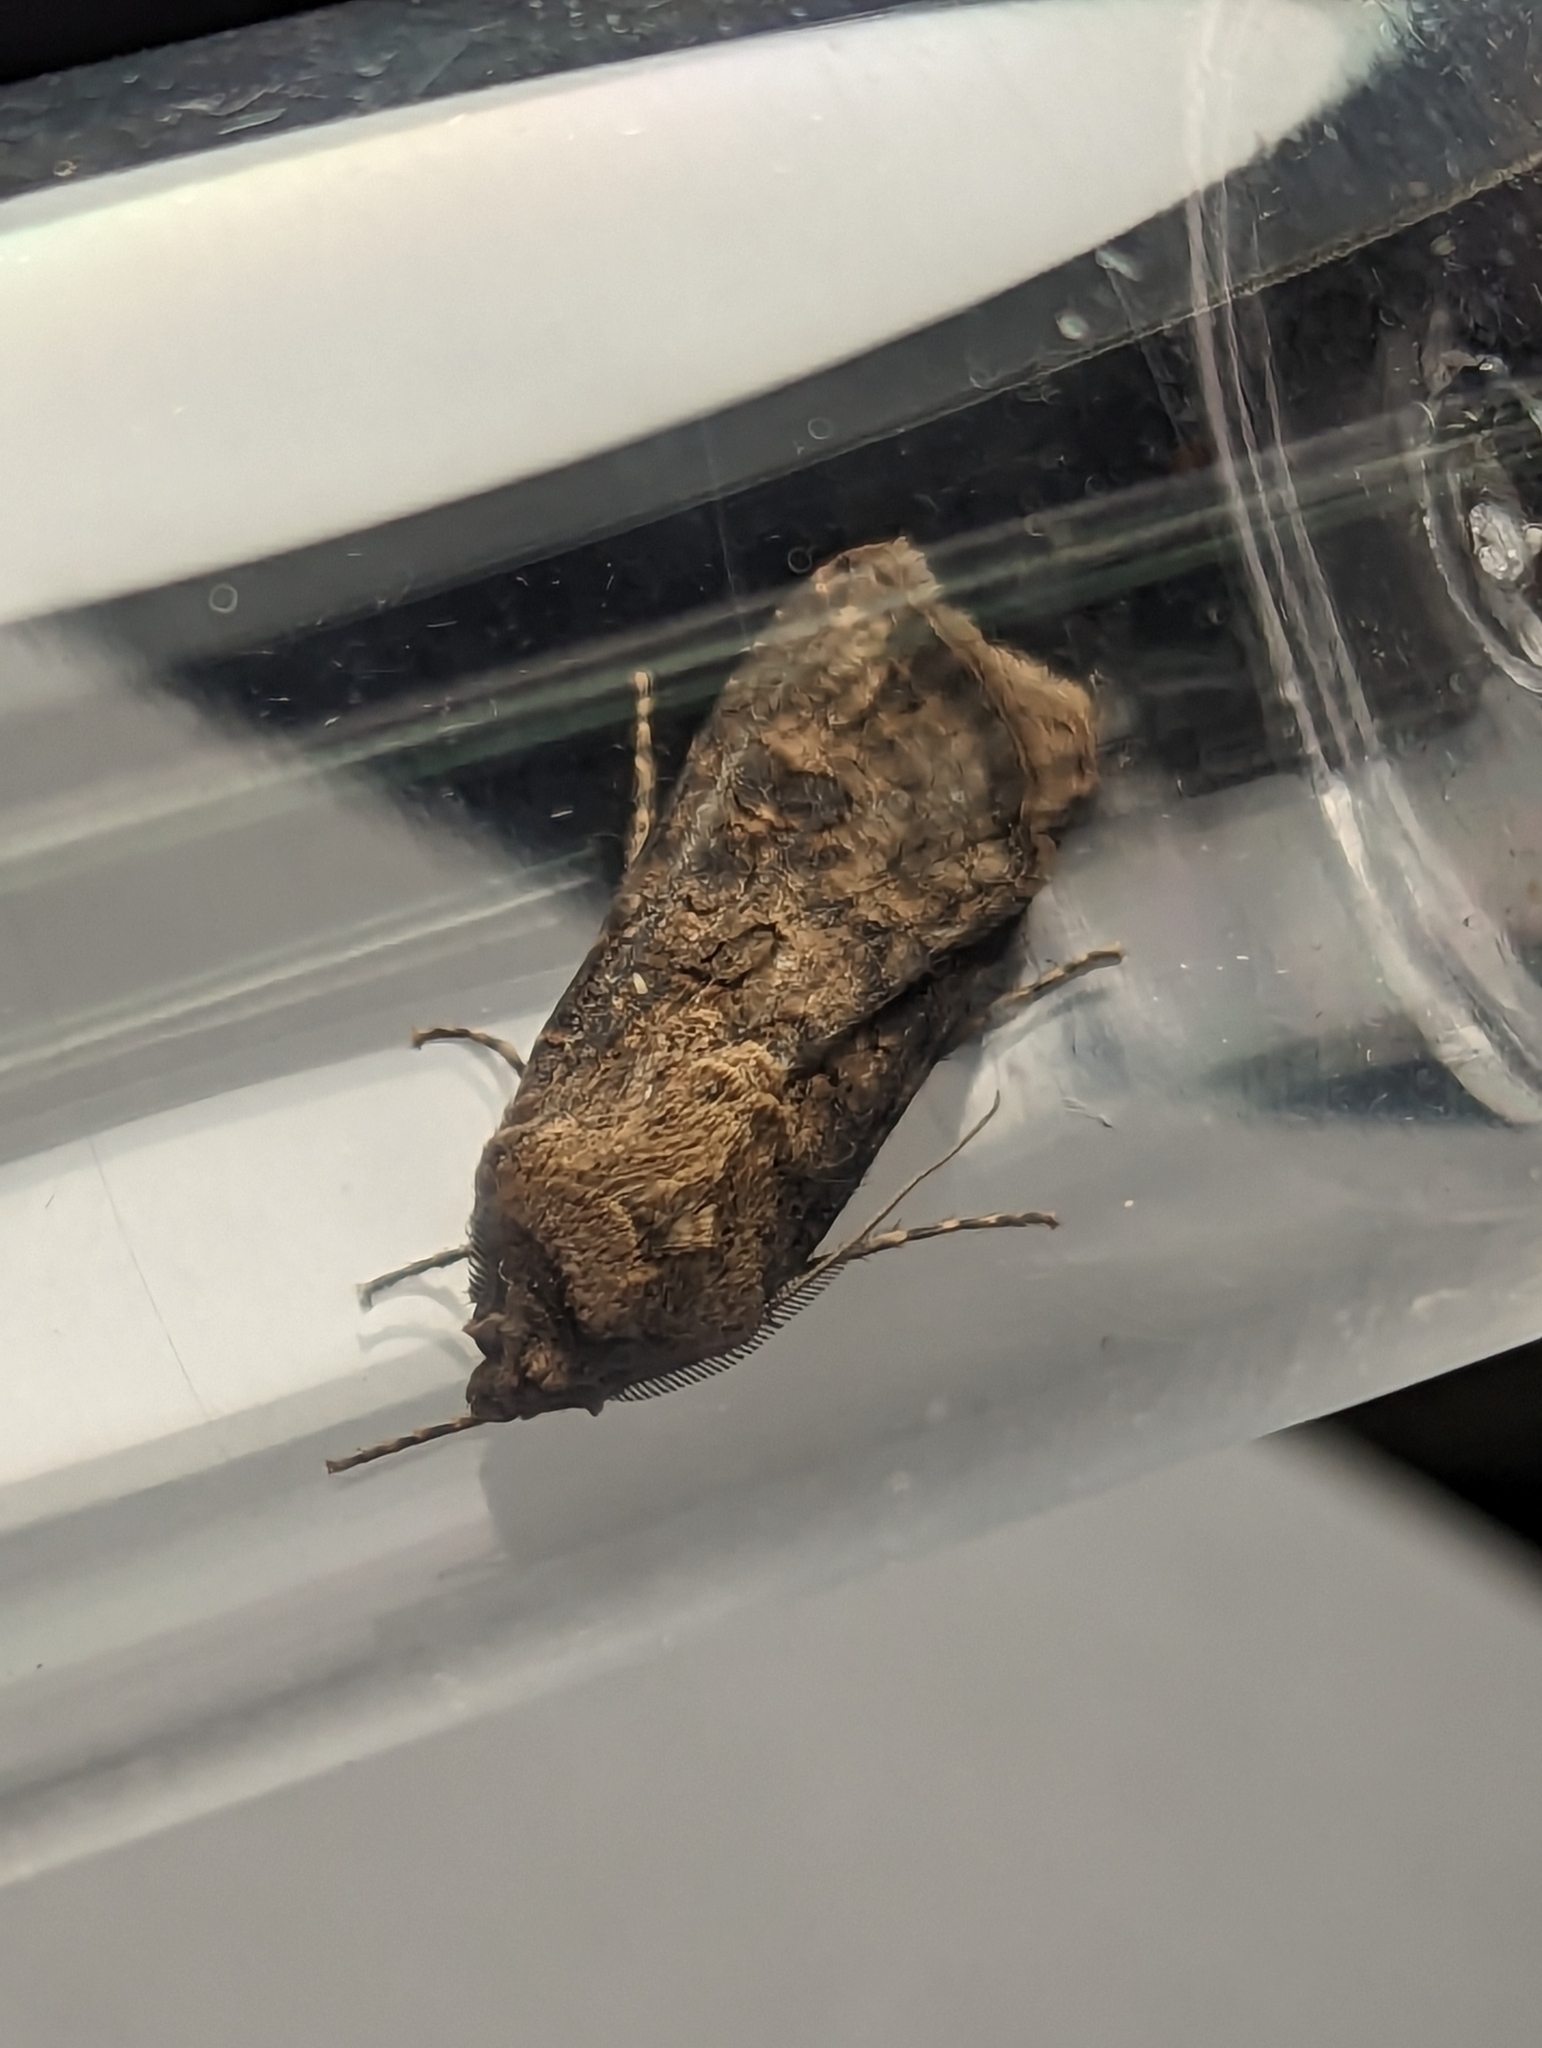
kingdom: Animalia
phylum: Arthropoda
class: Insecta
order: Lepidoptera
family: Noctuidae
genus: Agrotis
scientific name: Agrotis segetum
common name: Turnip moth
